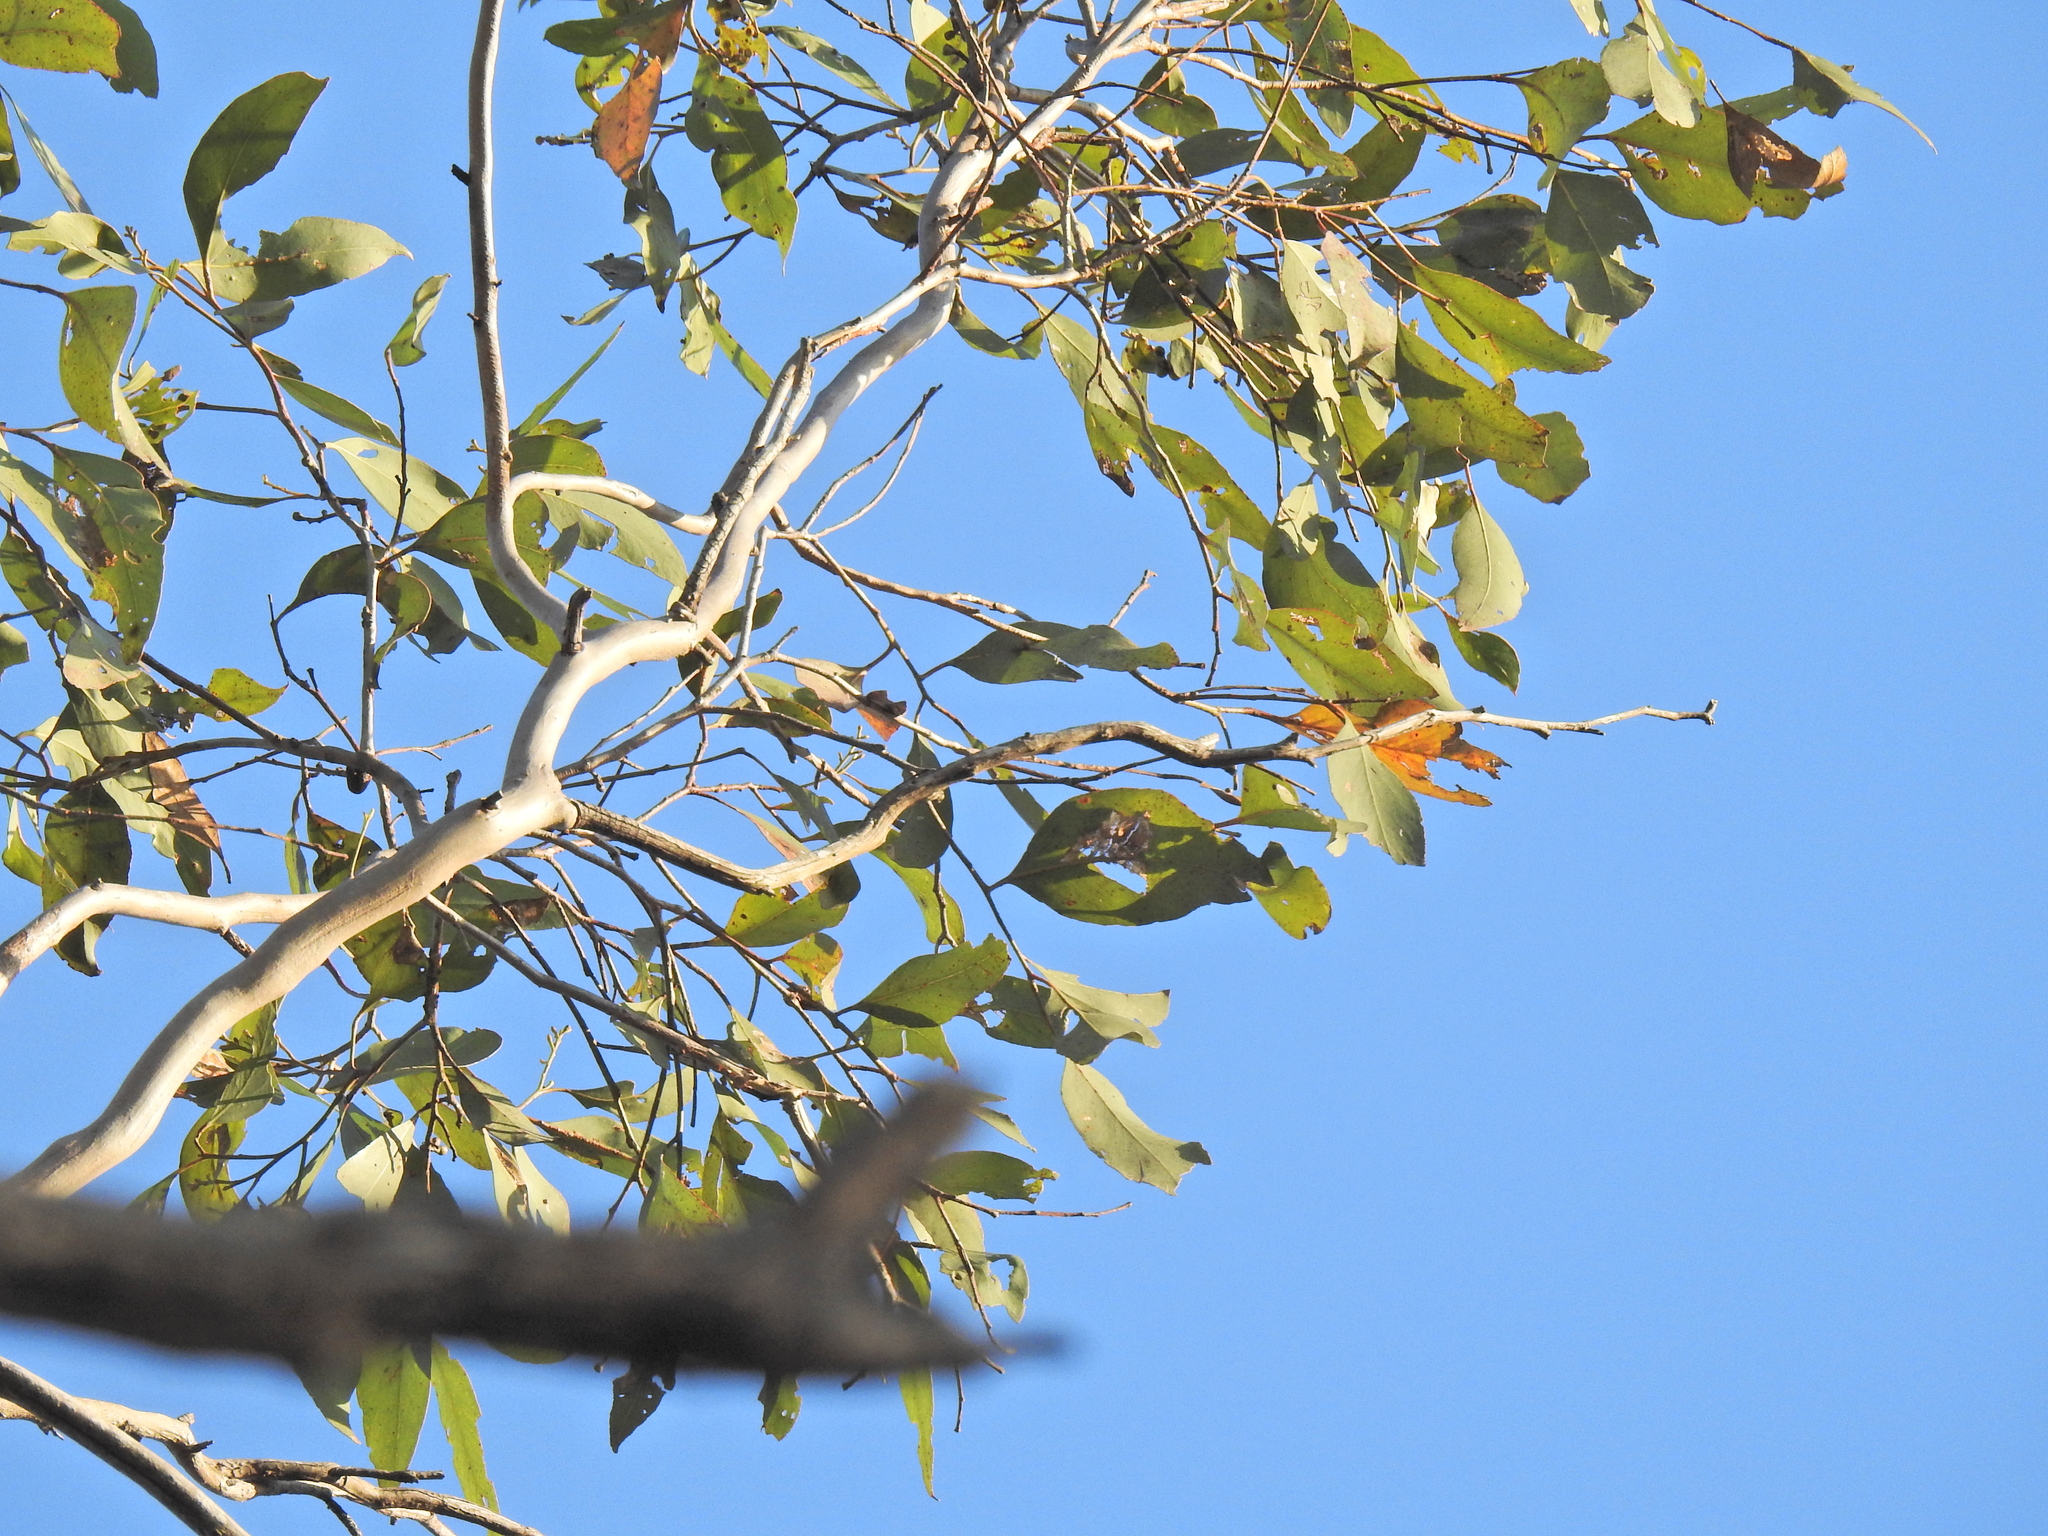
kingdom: Plantae
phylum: Tracheophyta
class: Magnoliopsida
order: Myrtales
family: Myrtaceae
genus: Eucalyptus
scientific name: Eucalyptus moluccana
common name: Grey-box
